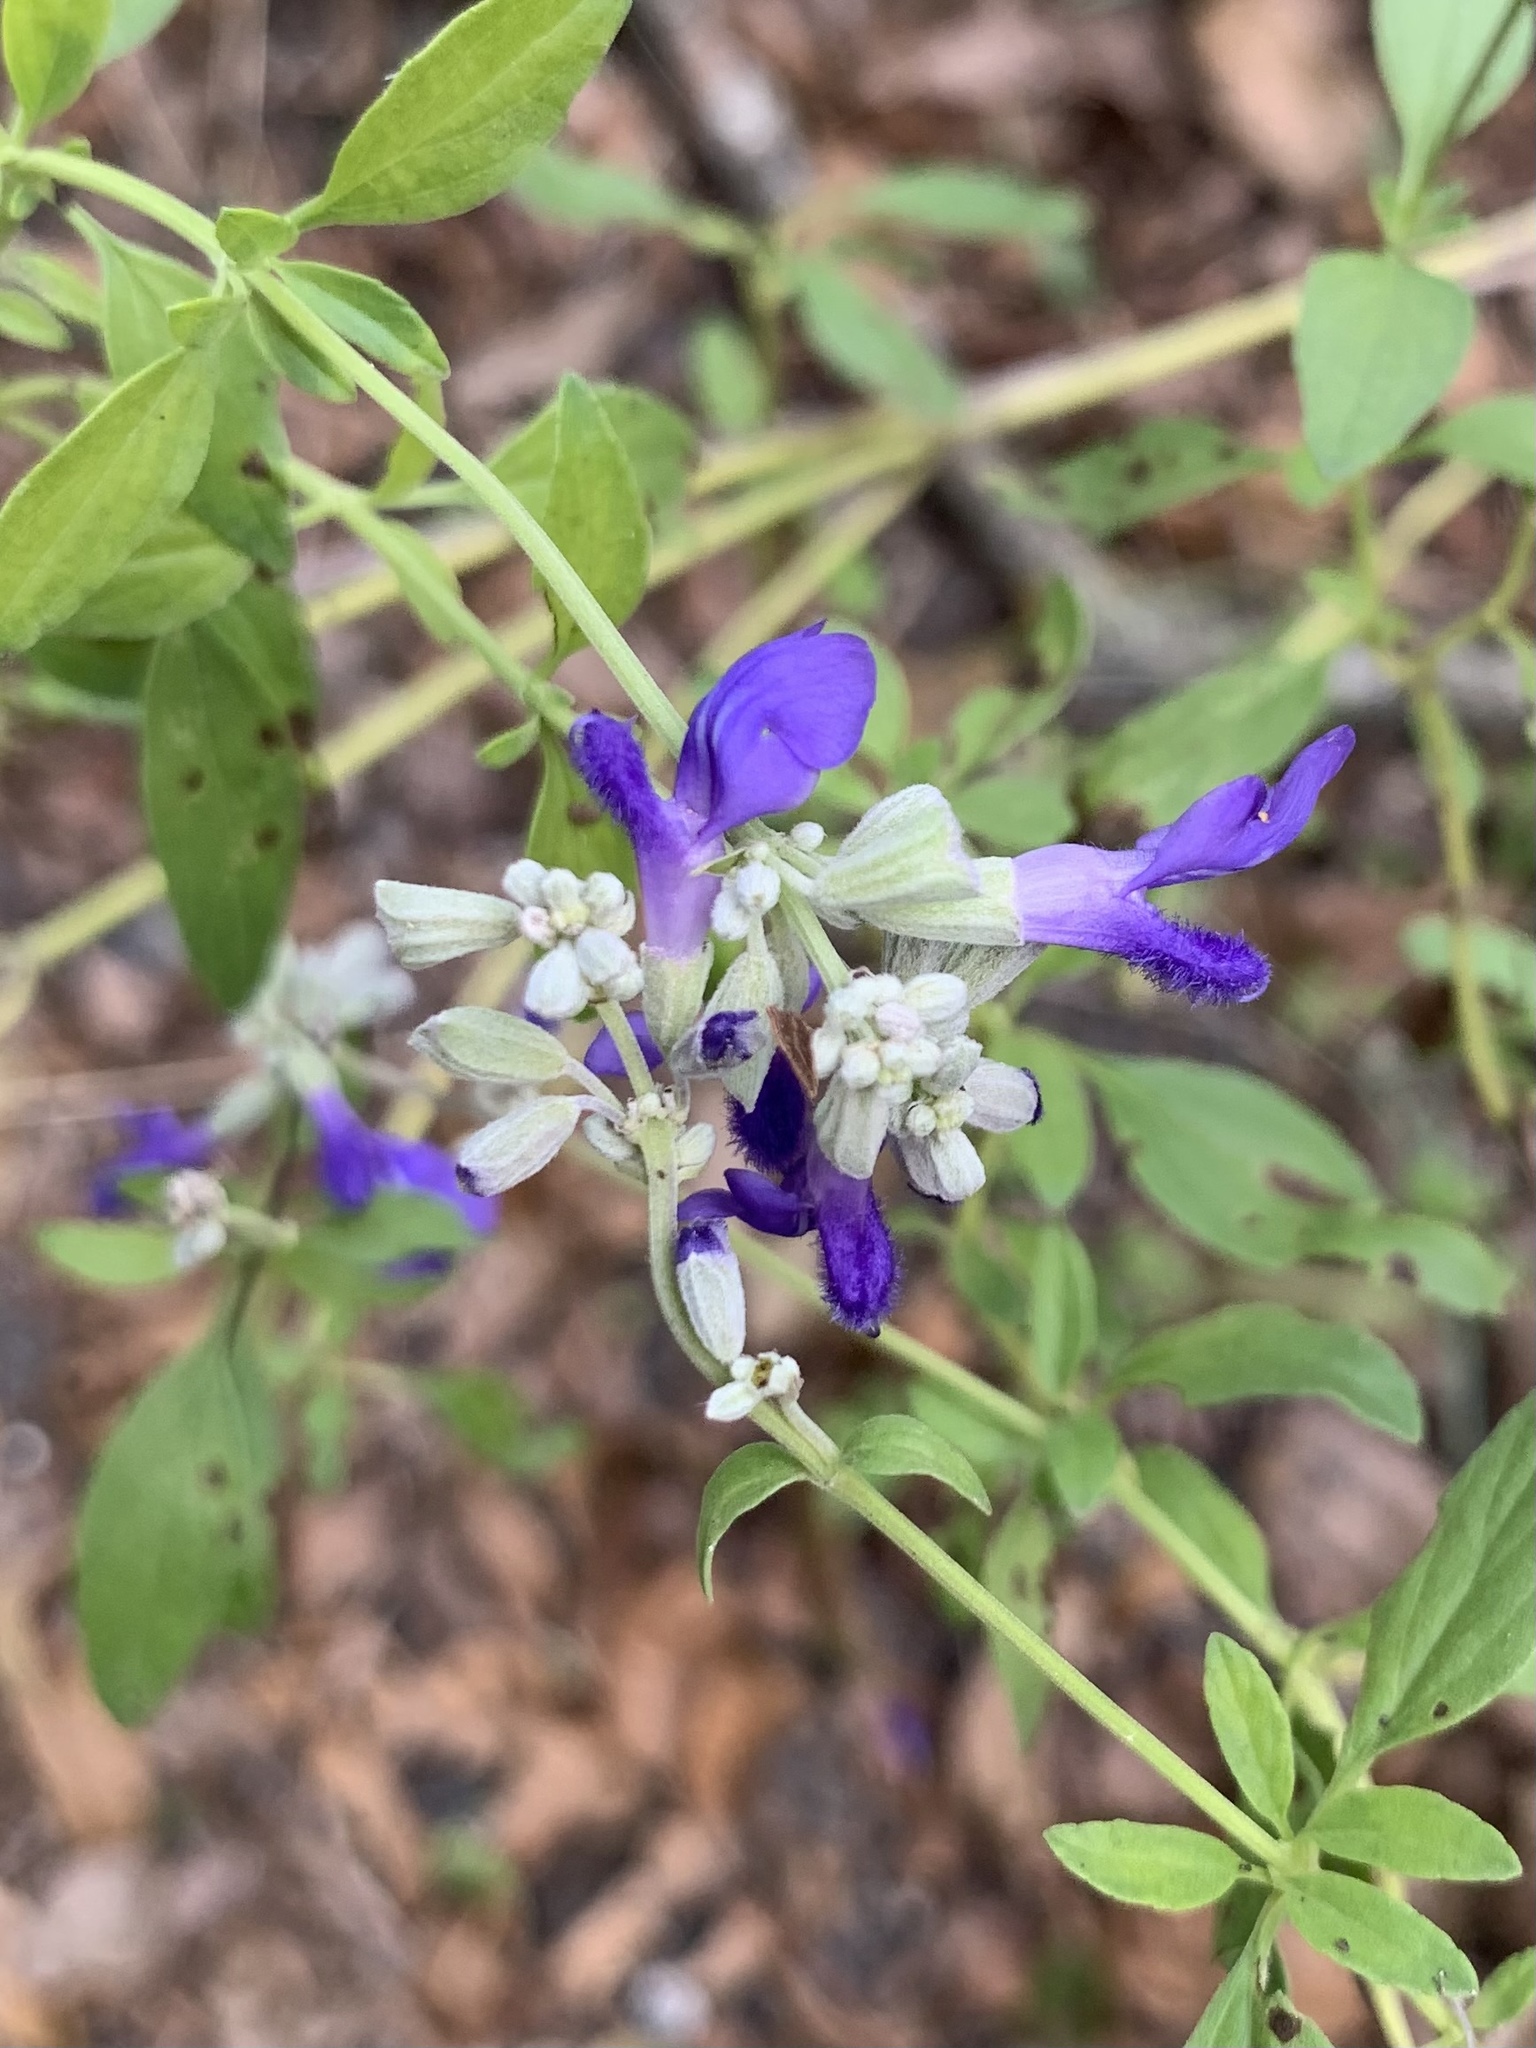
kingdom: Plantae
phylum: Tracheophyta
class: Magnoliopsida
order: Lamiales
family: Lamiaceae
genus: Salvia
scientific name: Salvia farinacea
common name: Mealy sage
